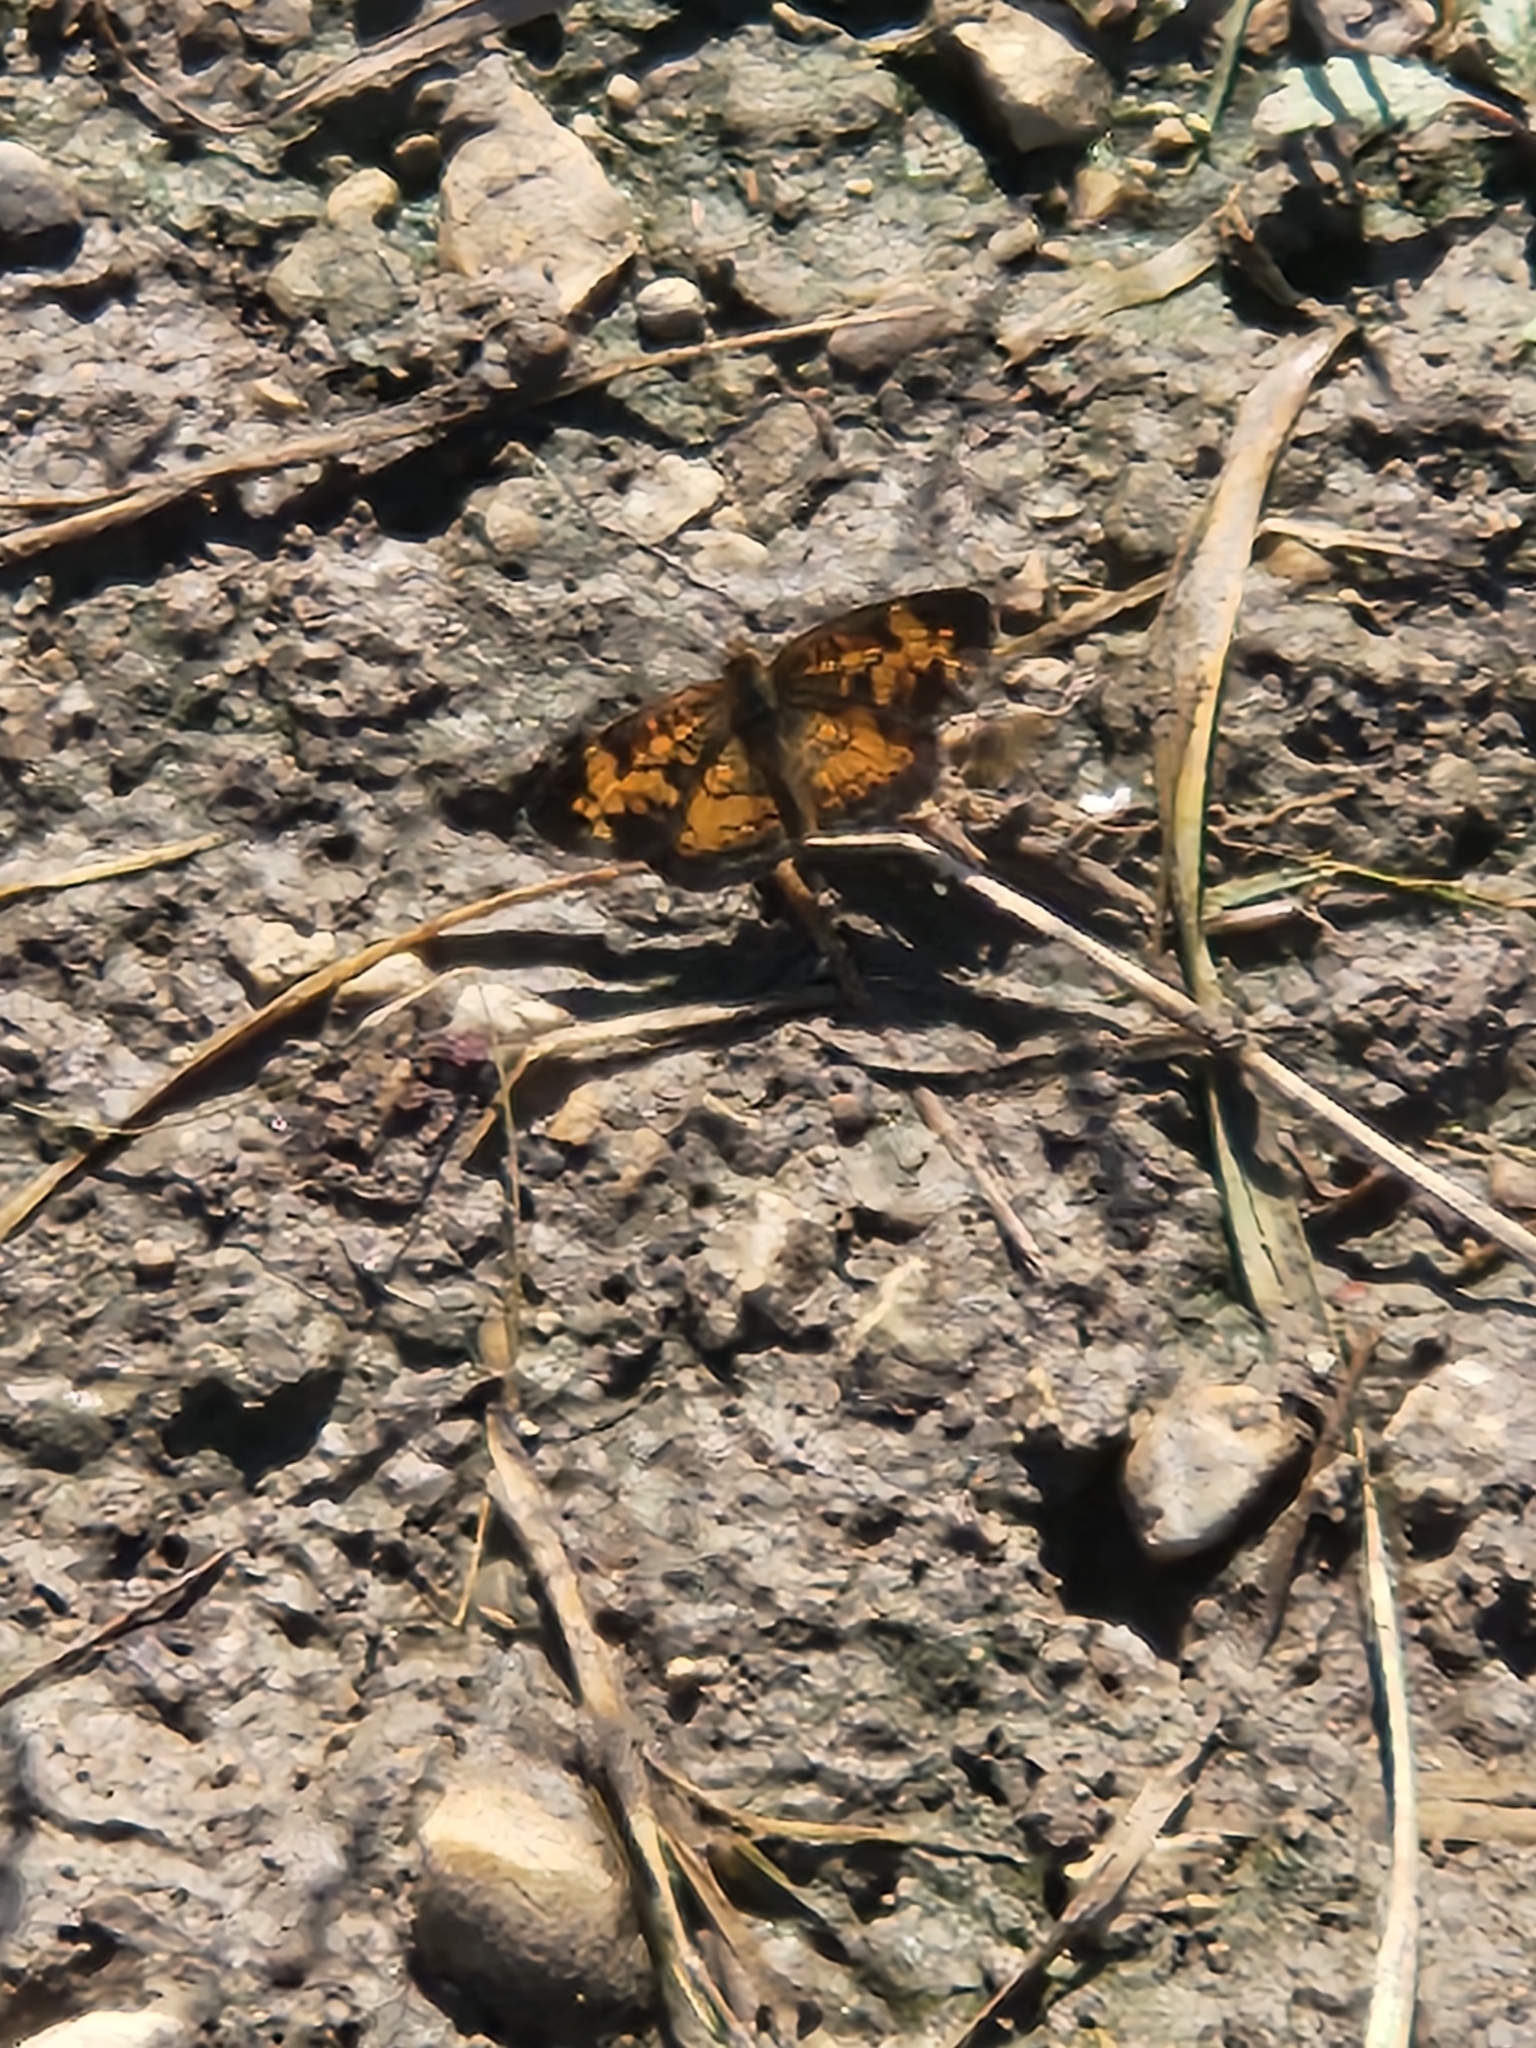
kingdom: Animalia
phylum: Arthropoda
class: Insecta
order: Lepidoptera
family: Nymphalidae
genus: Phyciodes
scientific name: Phyciodes tharos
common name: Pearl crescent
